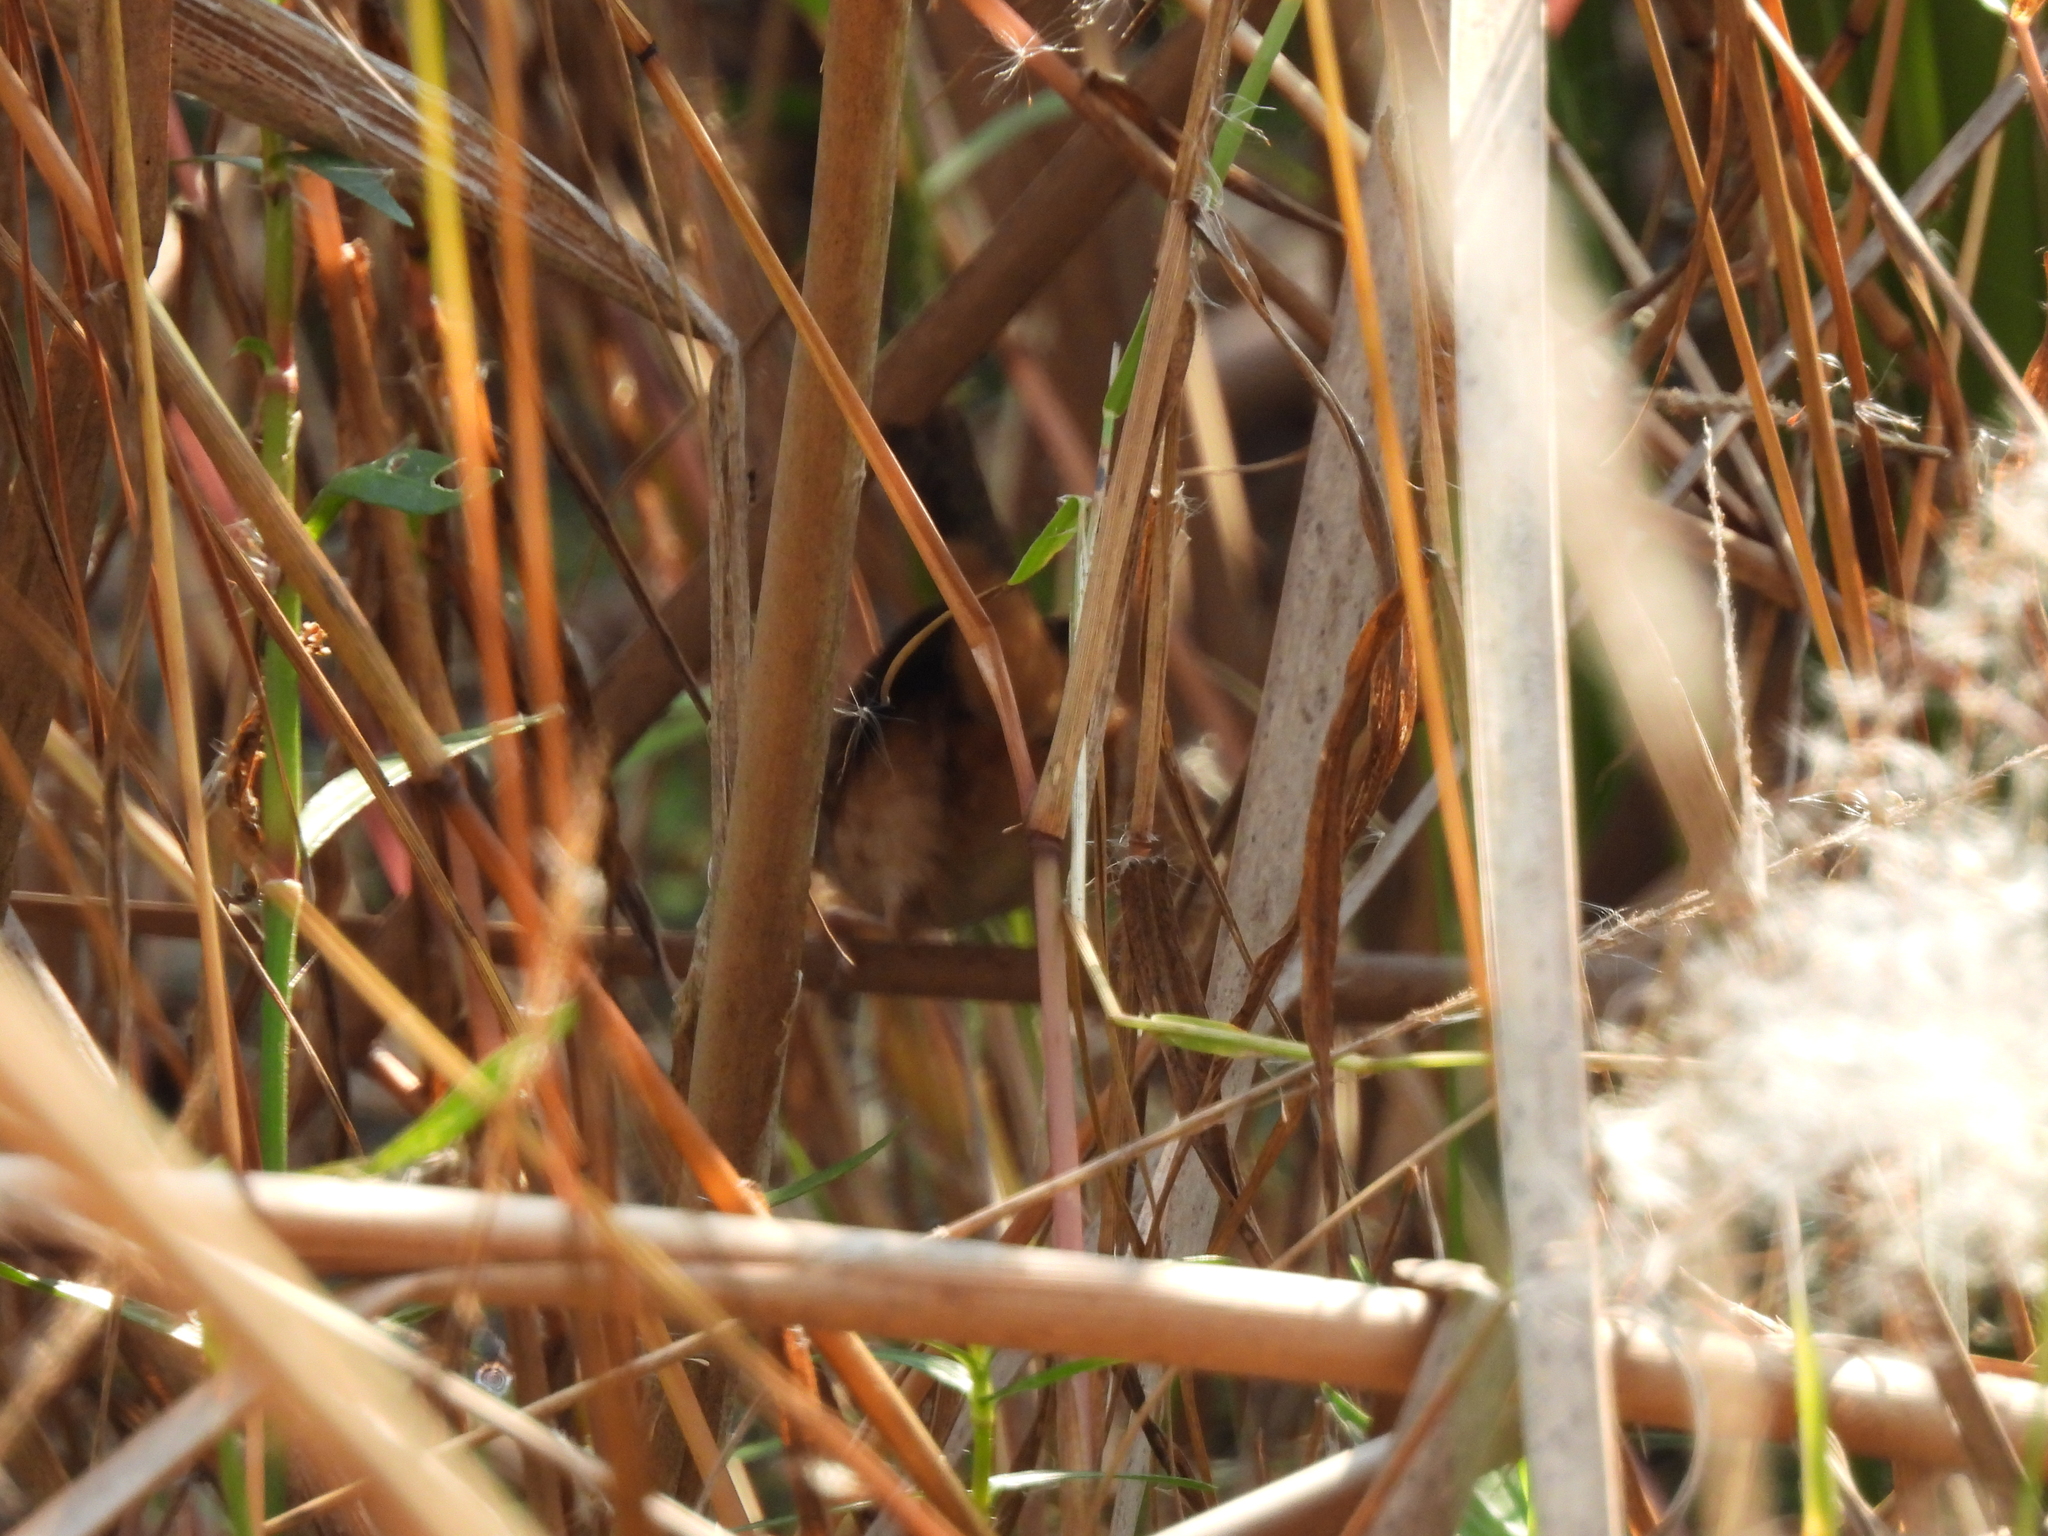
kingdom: Animalia
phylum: Chordata
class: Aves
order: Passeriformes
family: Troglodytidae
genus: Cistothorus
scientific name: Cistothorus platensis
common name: Sedge wren
